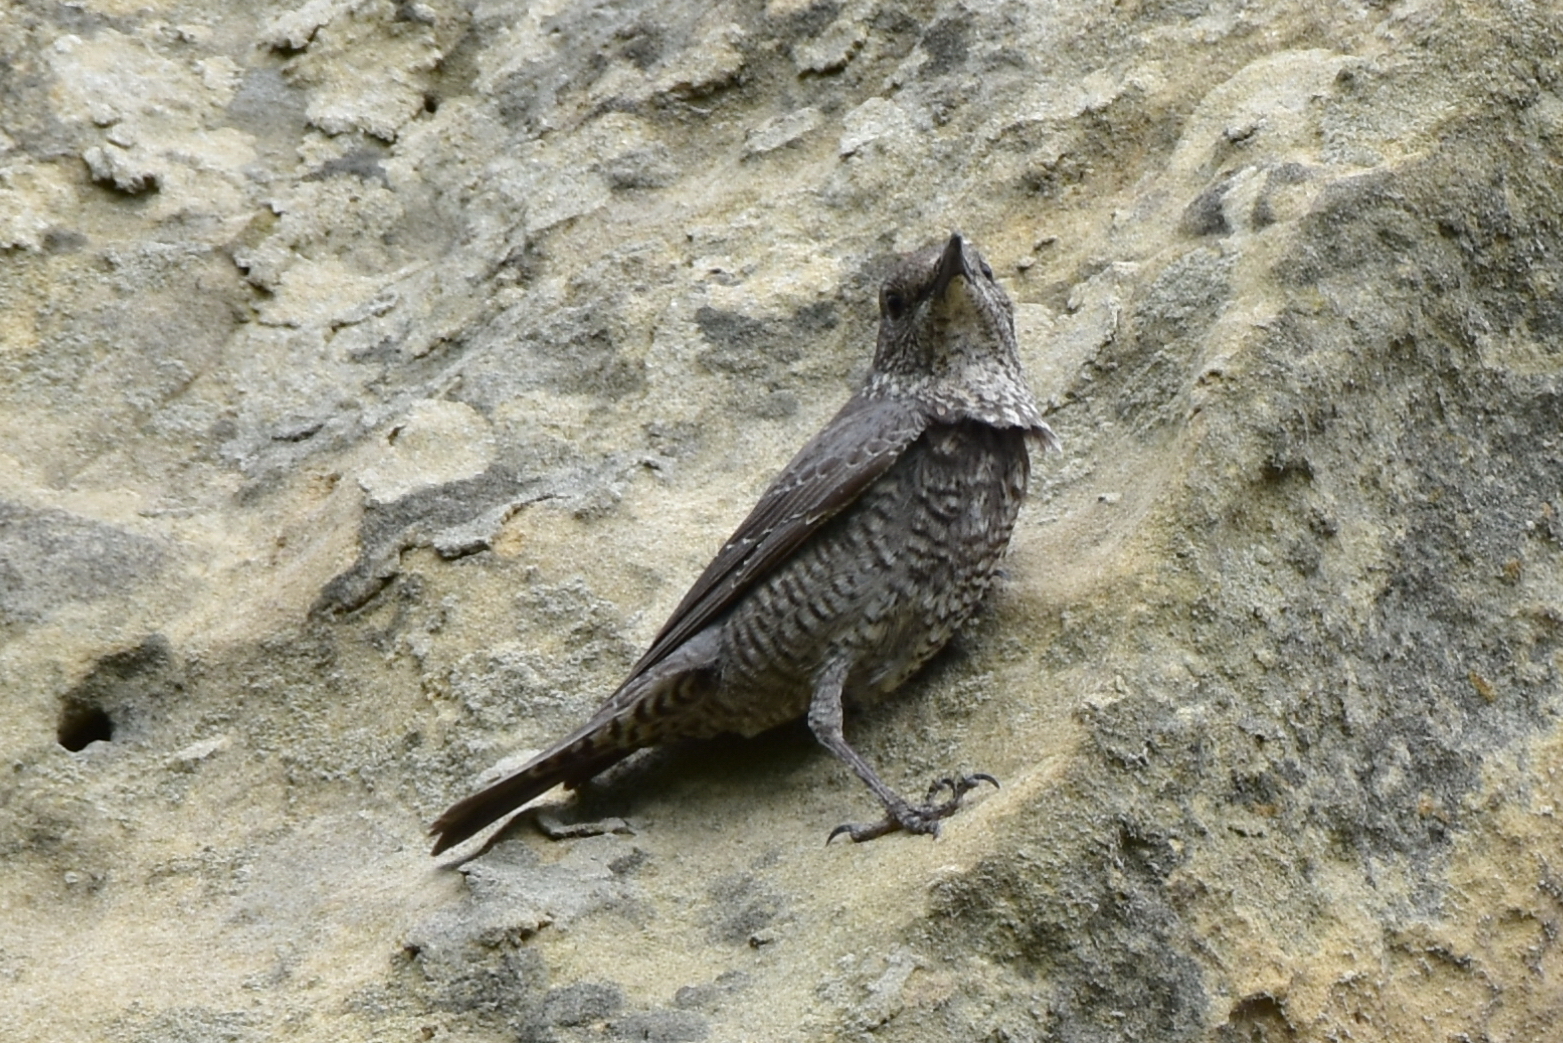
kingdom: Animalia
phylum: Chordata
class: Aves
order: Passeriformes
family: Muscicapidae
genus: Monticola
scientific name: Monticola solitarius
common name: Blue rock thrush
